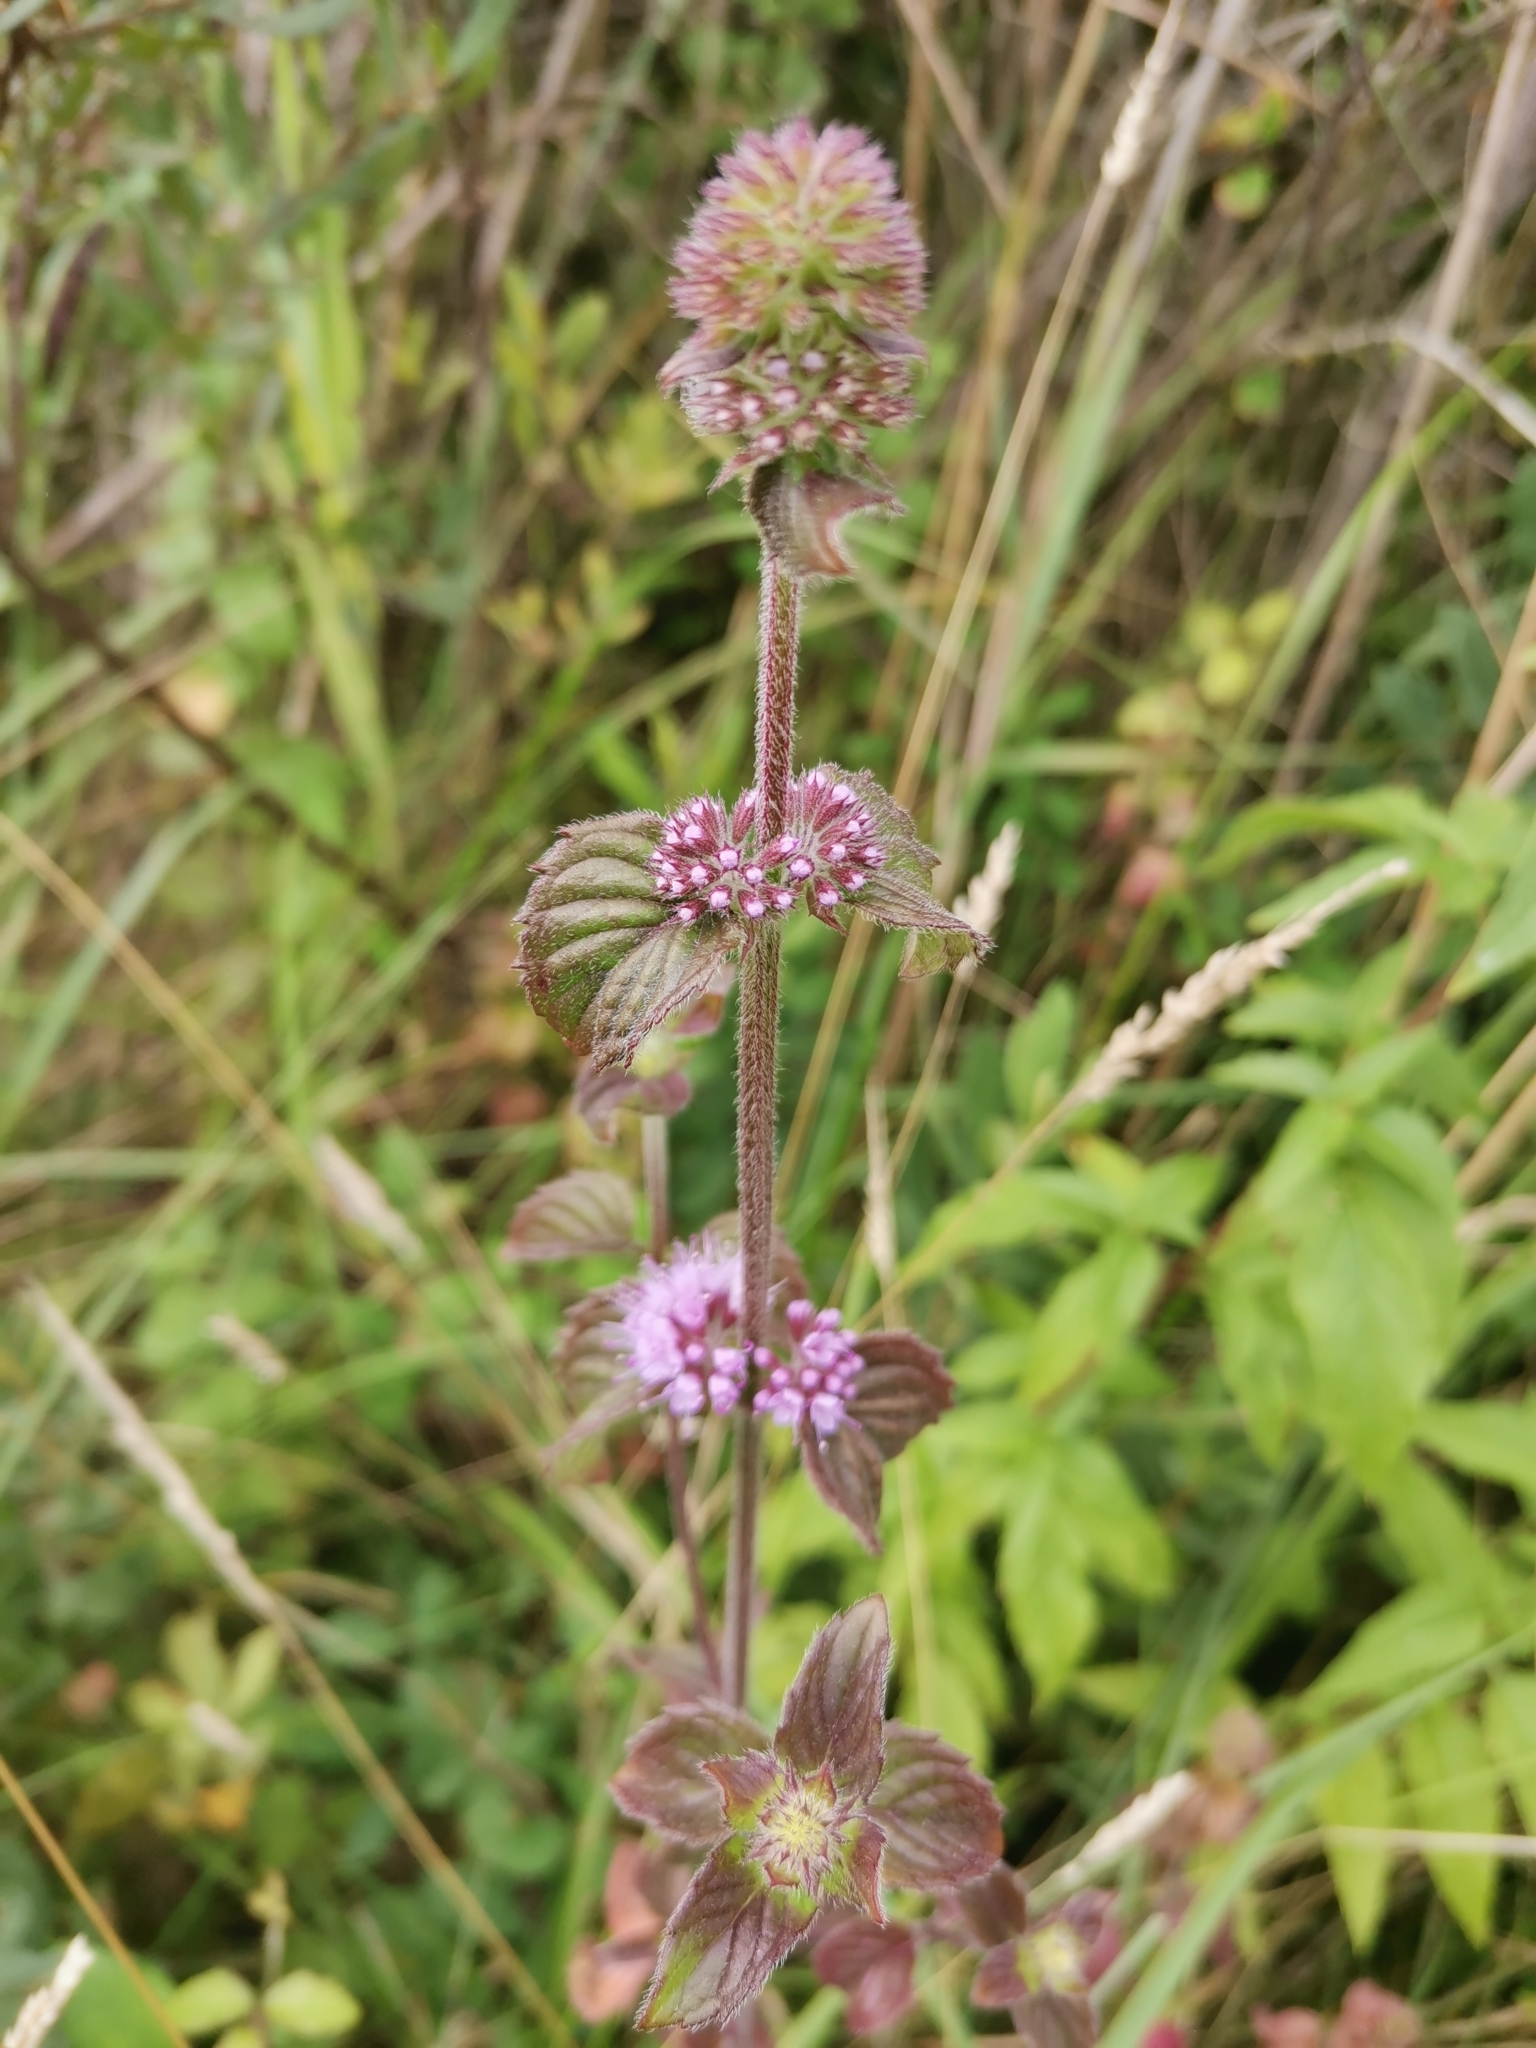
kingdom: Plantae
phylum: Tracheophyta
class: Magnoliopsida
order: Lamiales
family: Lamiaceae
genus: Mentha
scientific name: Mentha aquatica
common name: Water mint
